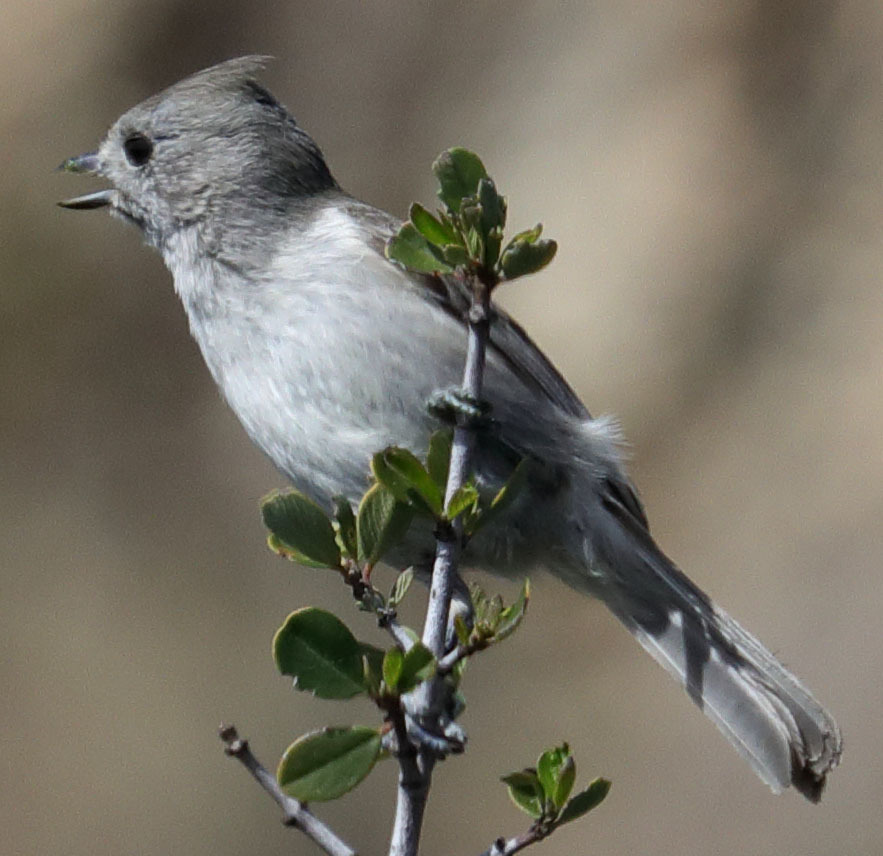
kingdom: Animalia
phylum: Chordata
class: Aves
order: Passeriformes
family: Paridae
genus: Baeolophus
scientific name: Baeolophus inornatus
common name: Oak titmouse
